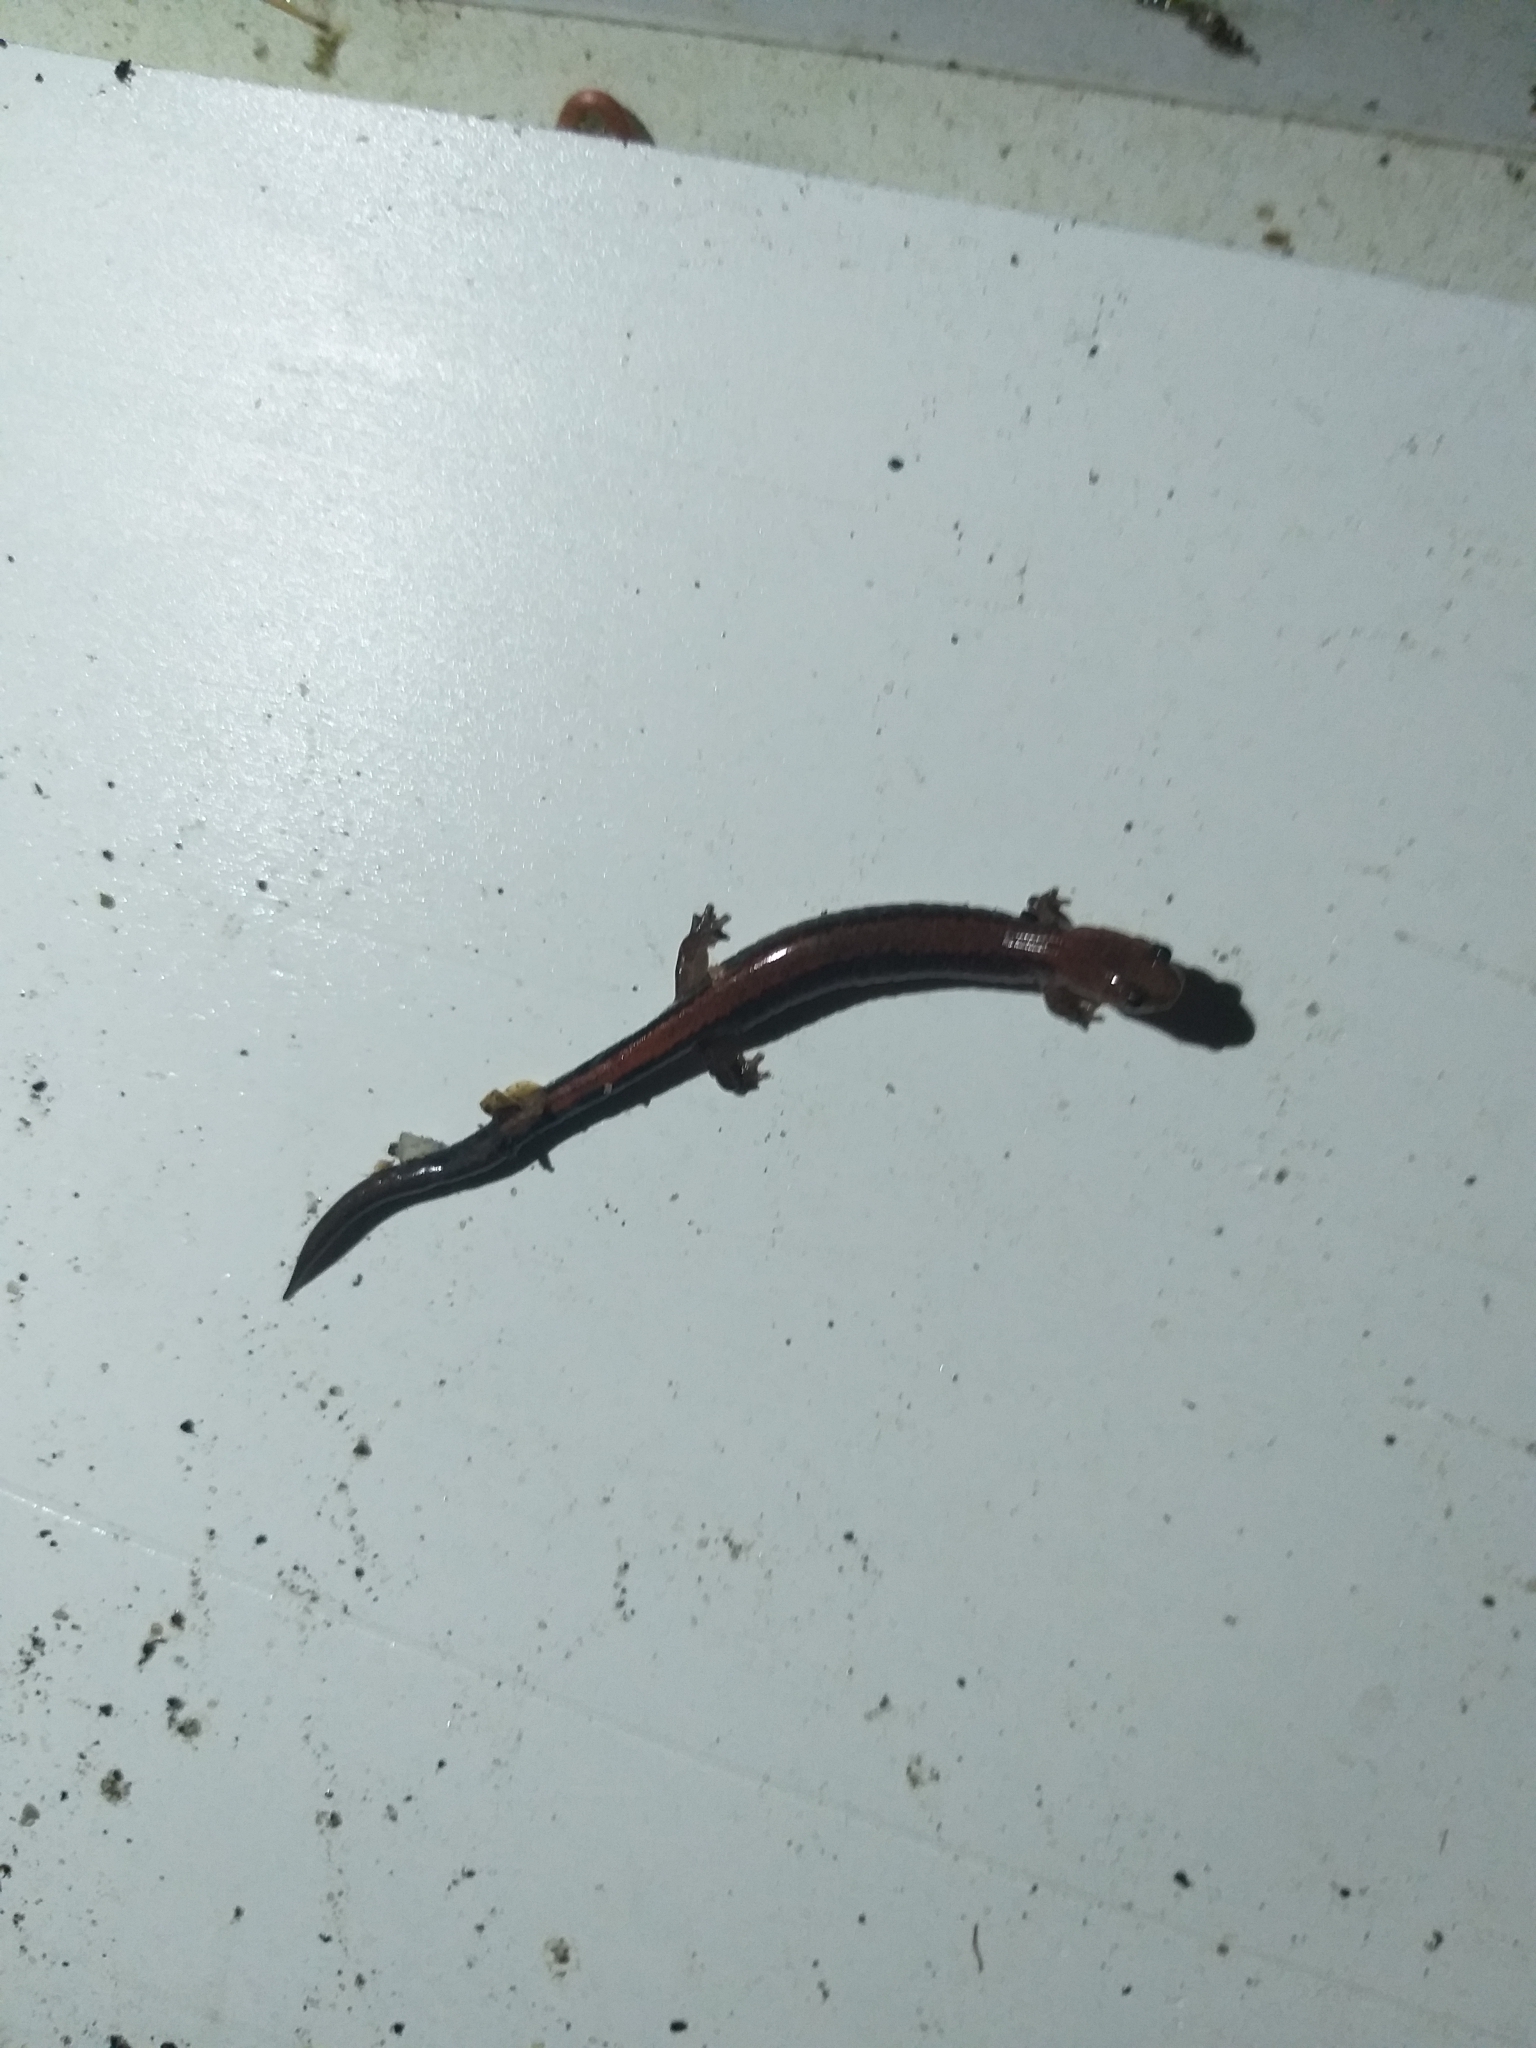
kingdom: Animalia
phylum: Chordata
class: Amphibia
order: Caudata
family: Plethodontidae
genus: Plethodon
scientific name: Plethodon cinereus
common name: Redback salamander
